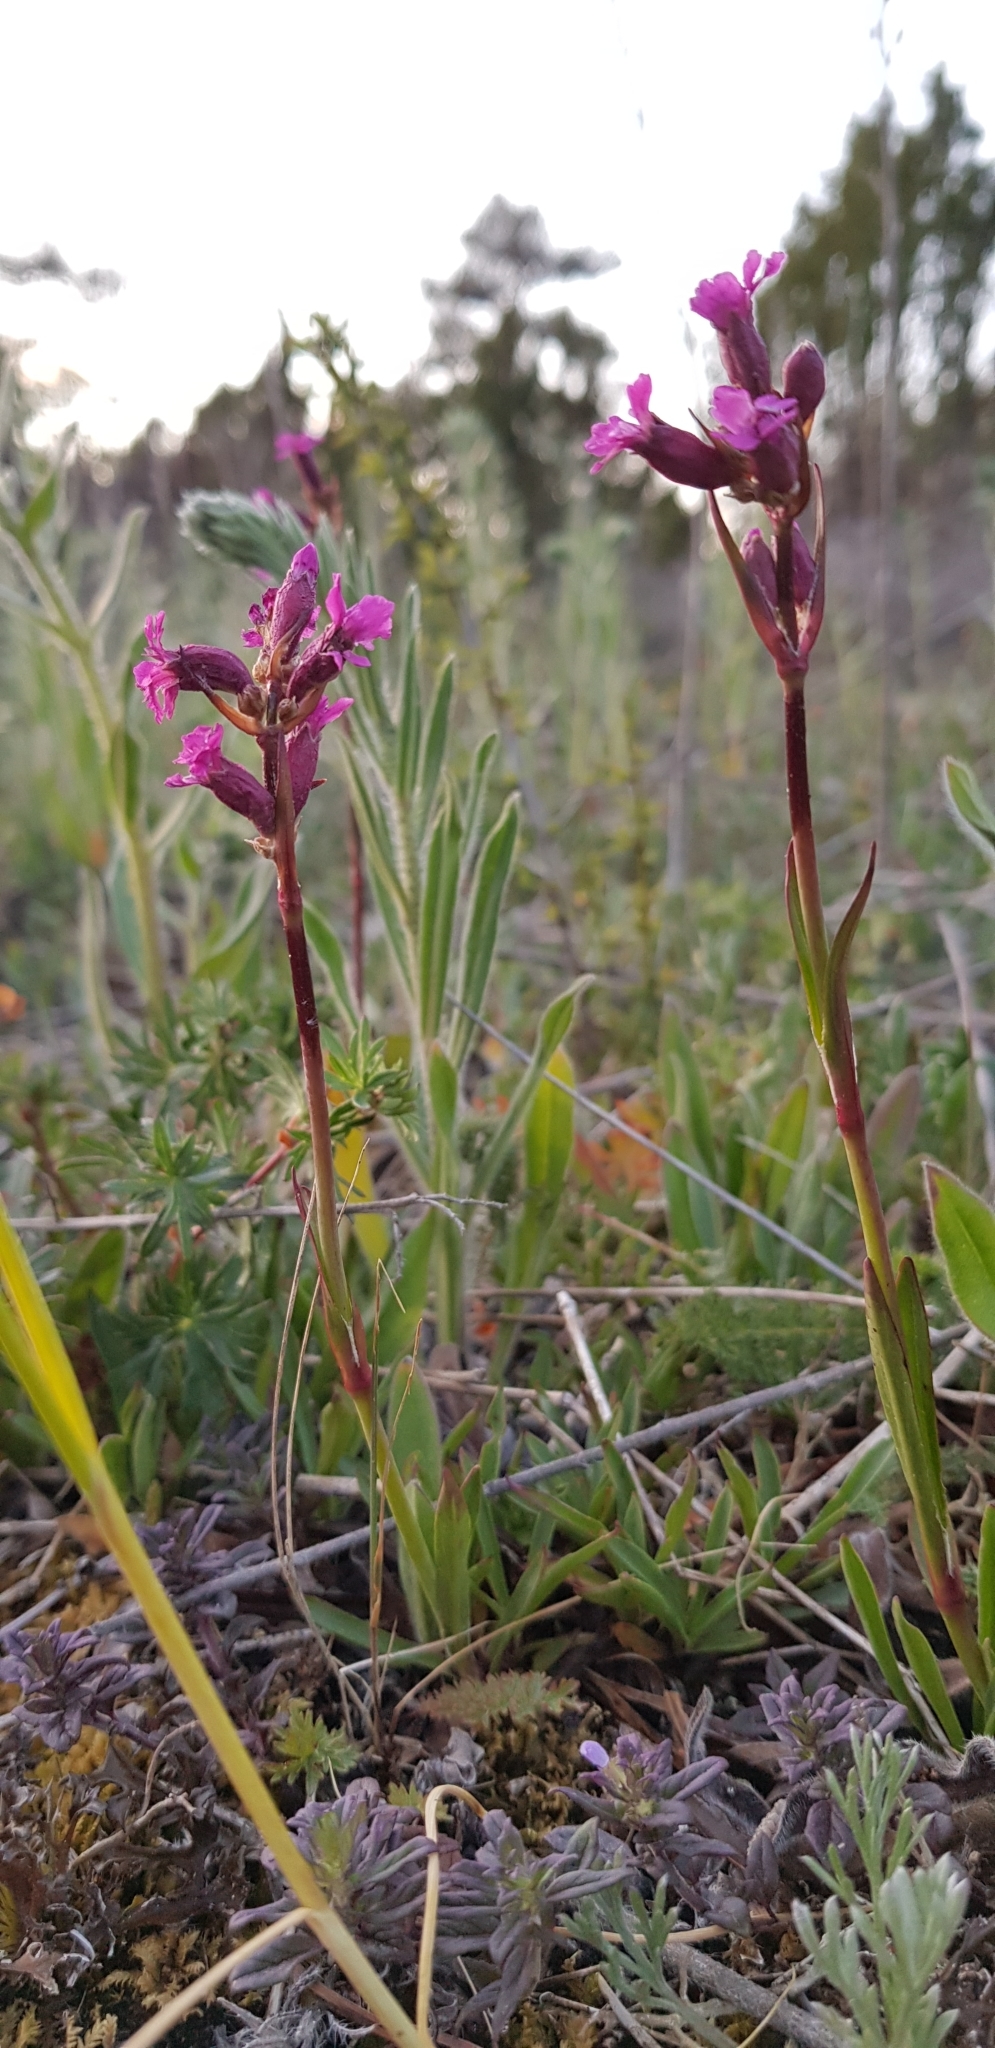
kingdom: Plantae
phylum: Tracheophyta
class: Magnoliopsida
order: Caryophyllales
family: Caryophyllaceae
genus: Viscaria
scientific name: Viscaria vulgaris
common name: Clammy campion
